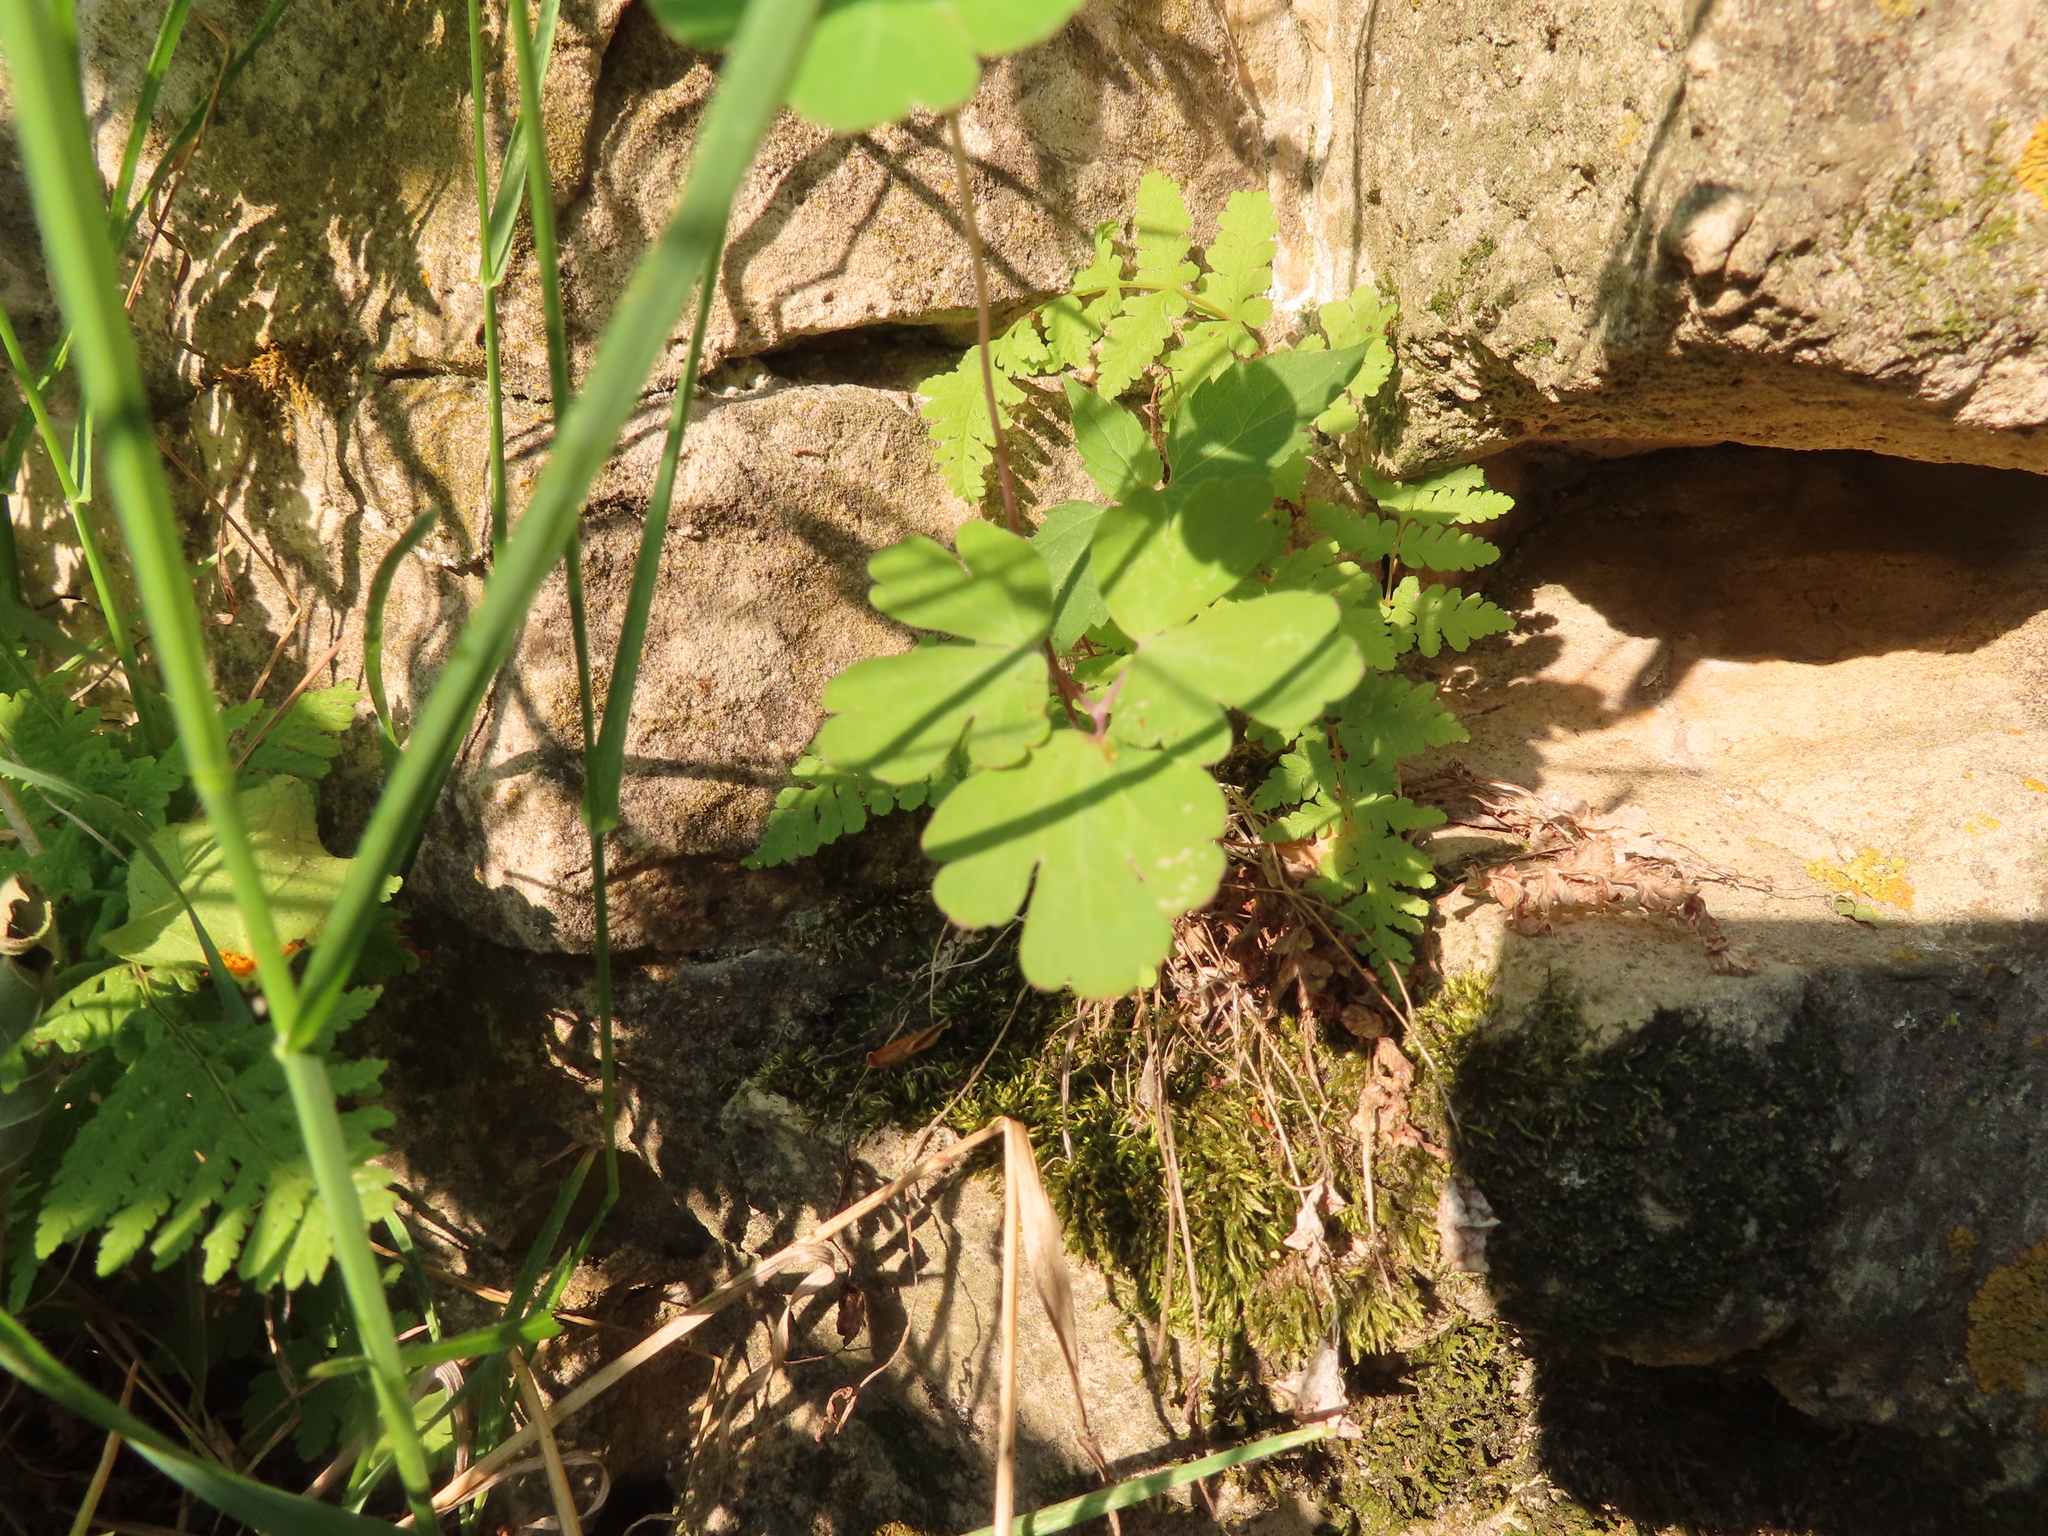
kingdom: Plantae
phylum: Tracheophyta
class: Magnoliopsida
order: Ranunculales
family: Ranunculaceae
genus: Aquilegia
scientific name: Aquilegia canadensis
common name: American columbine
